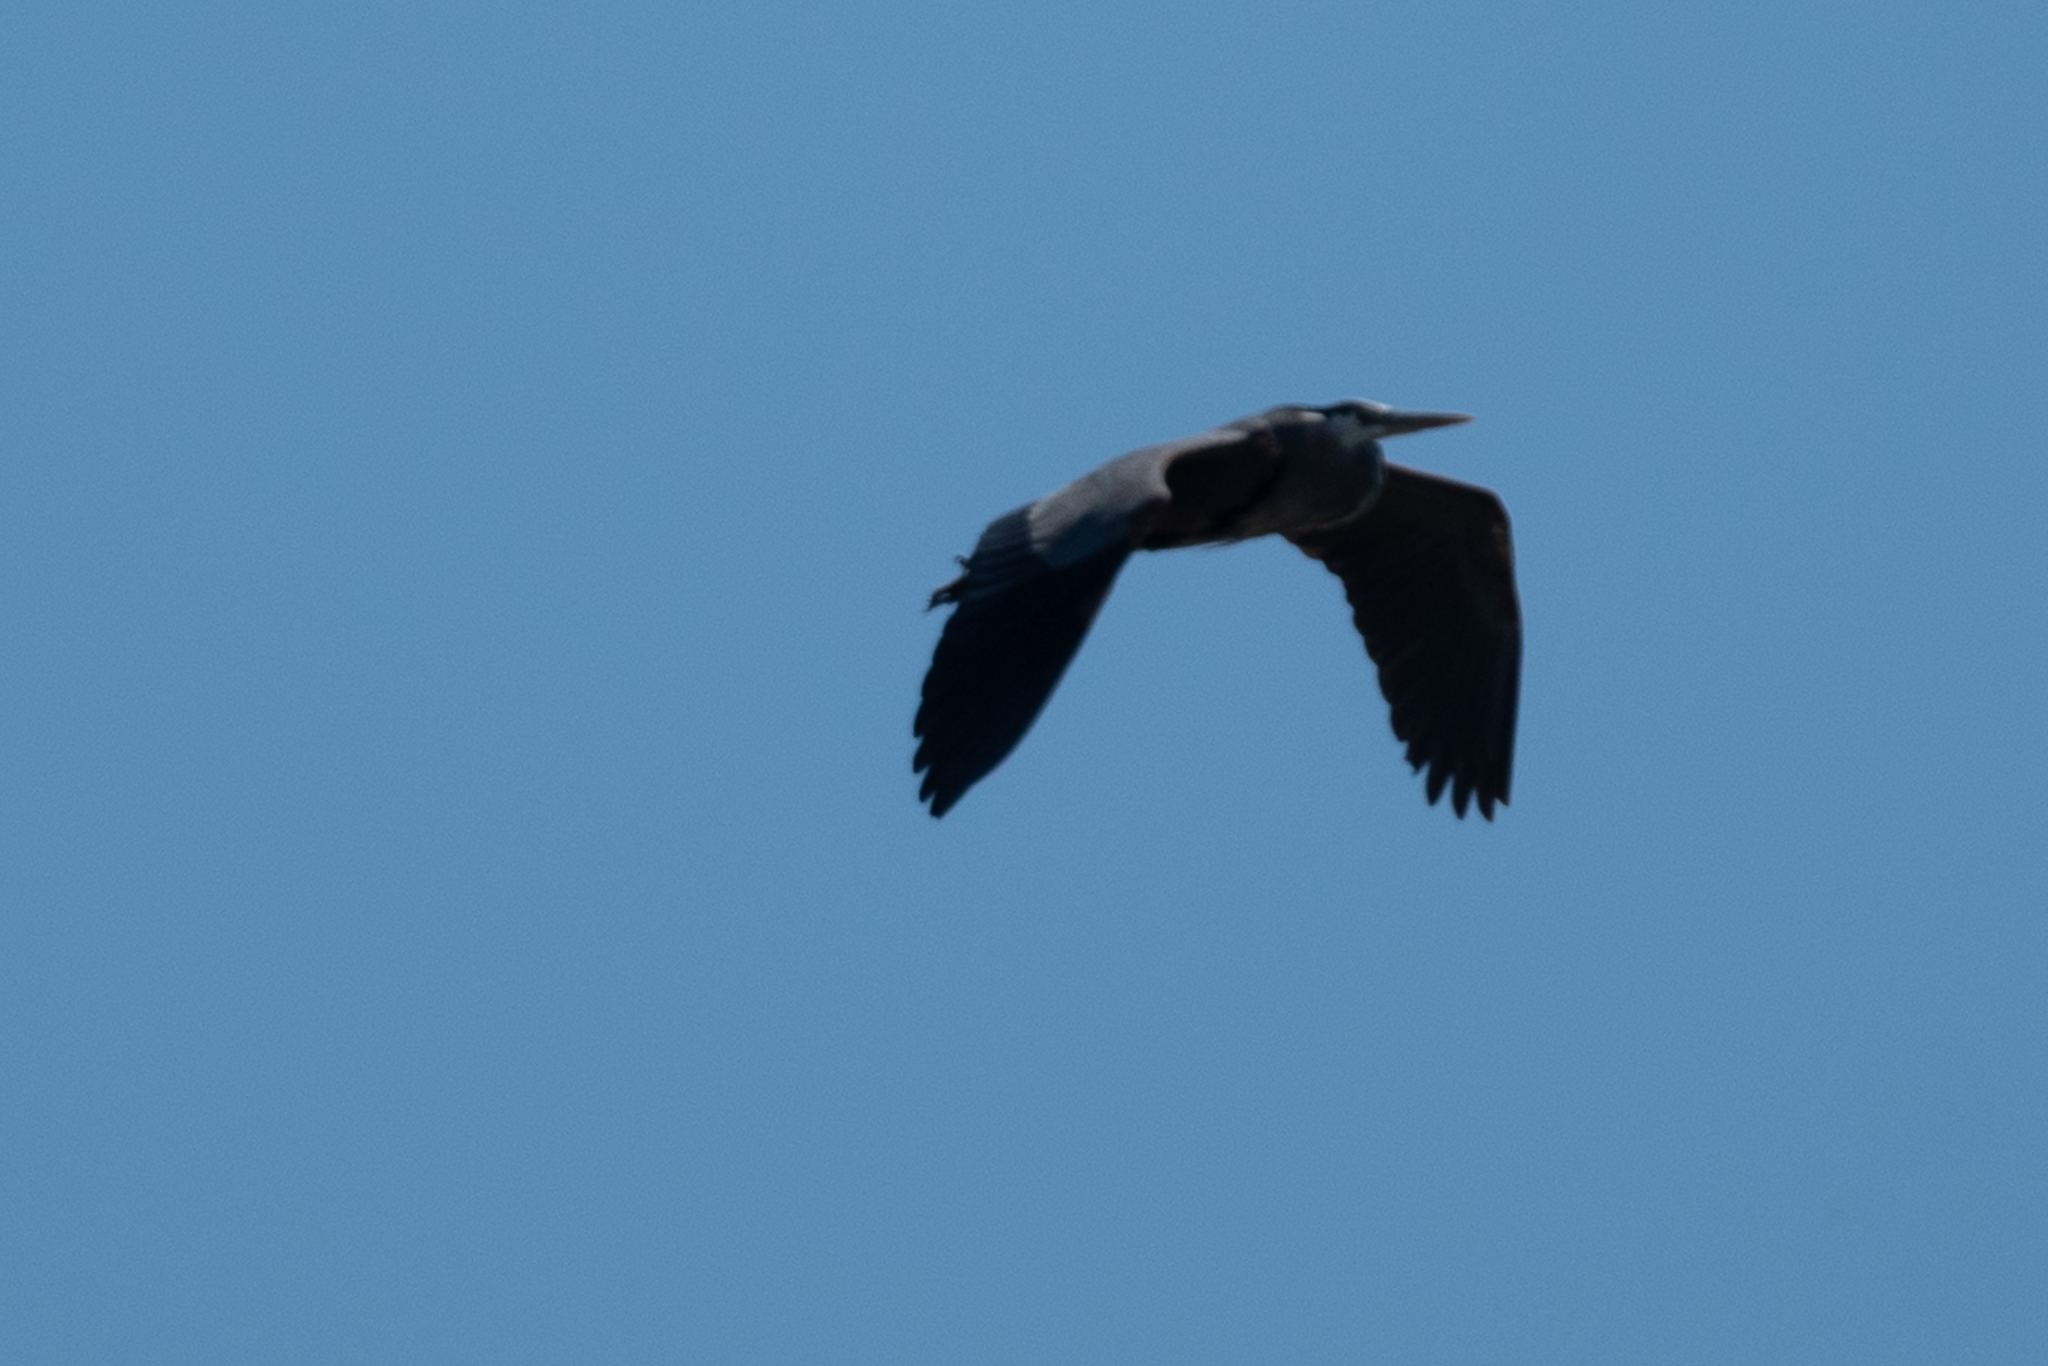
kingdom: Animalia
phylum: Chordata
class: Aves
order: Pelecaniformes
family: Ardeidae
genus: Ardea
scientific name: Ardea herodias
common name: Great blue heron
